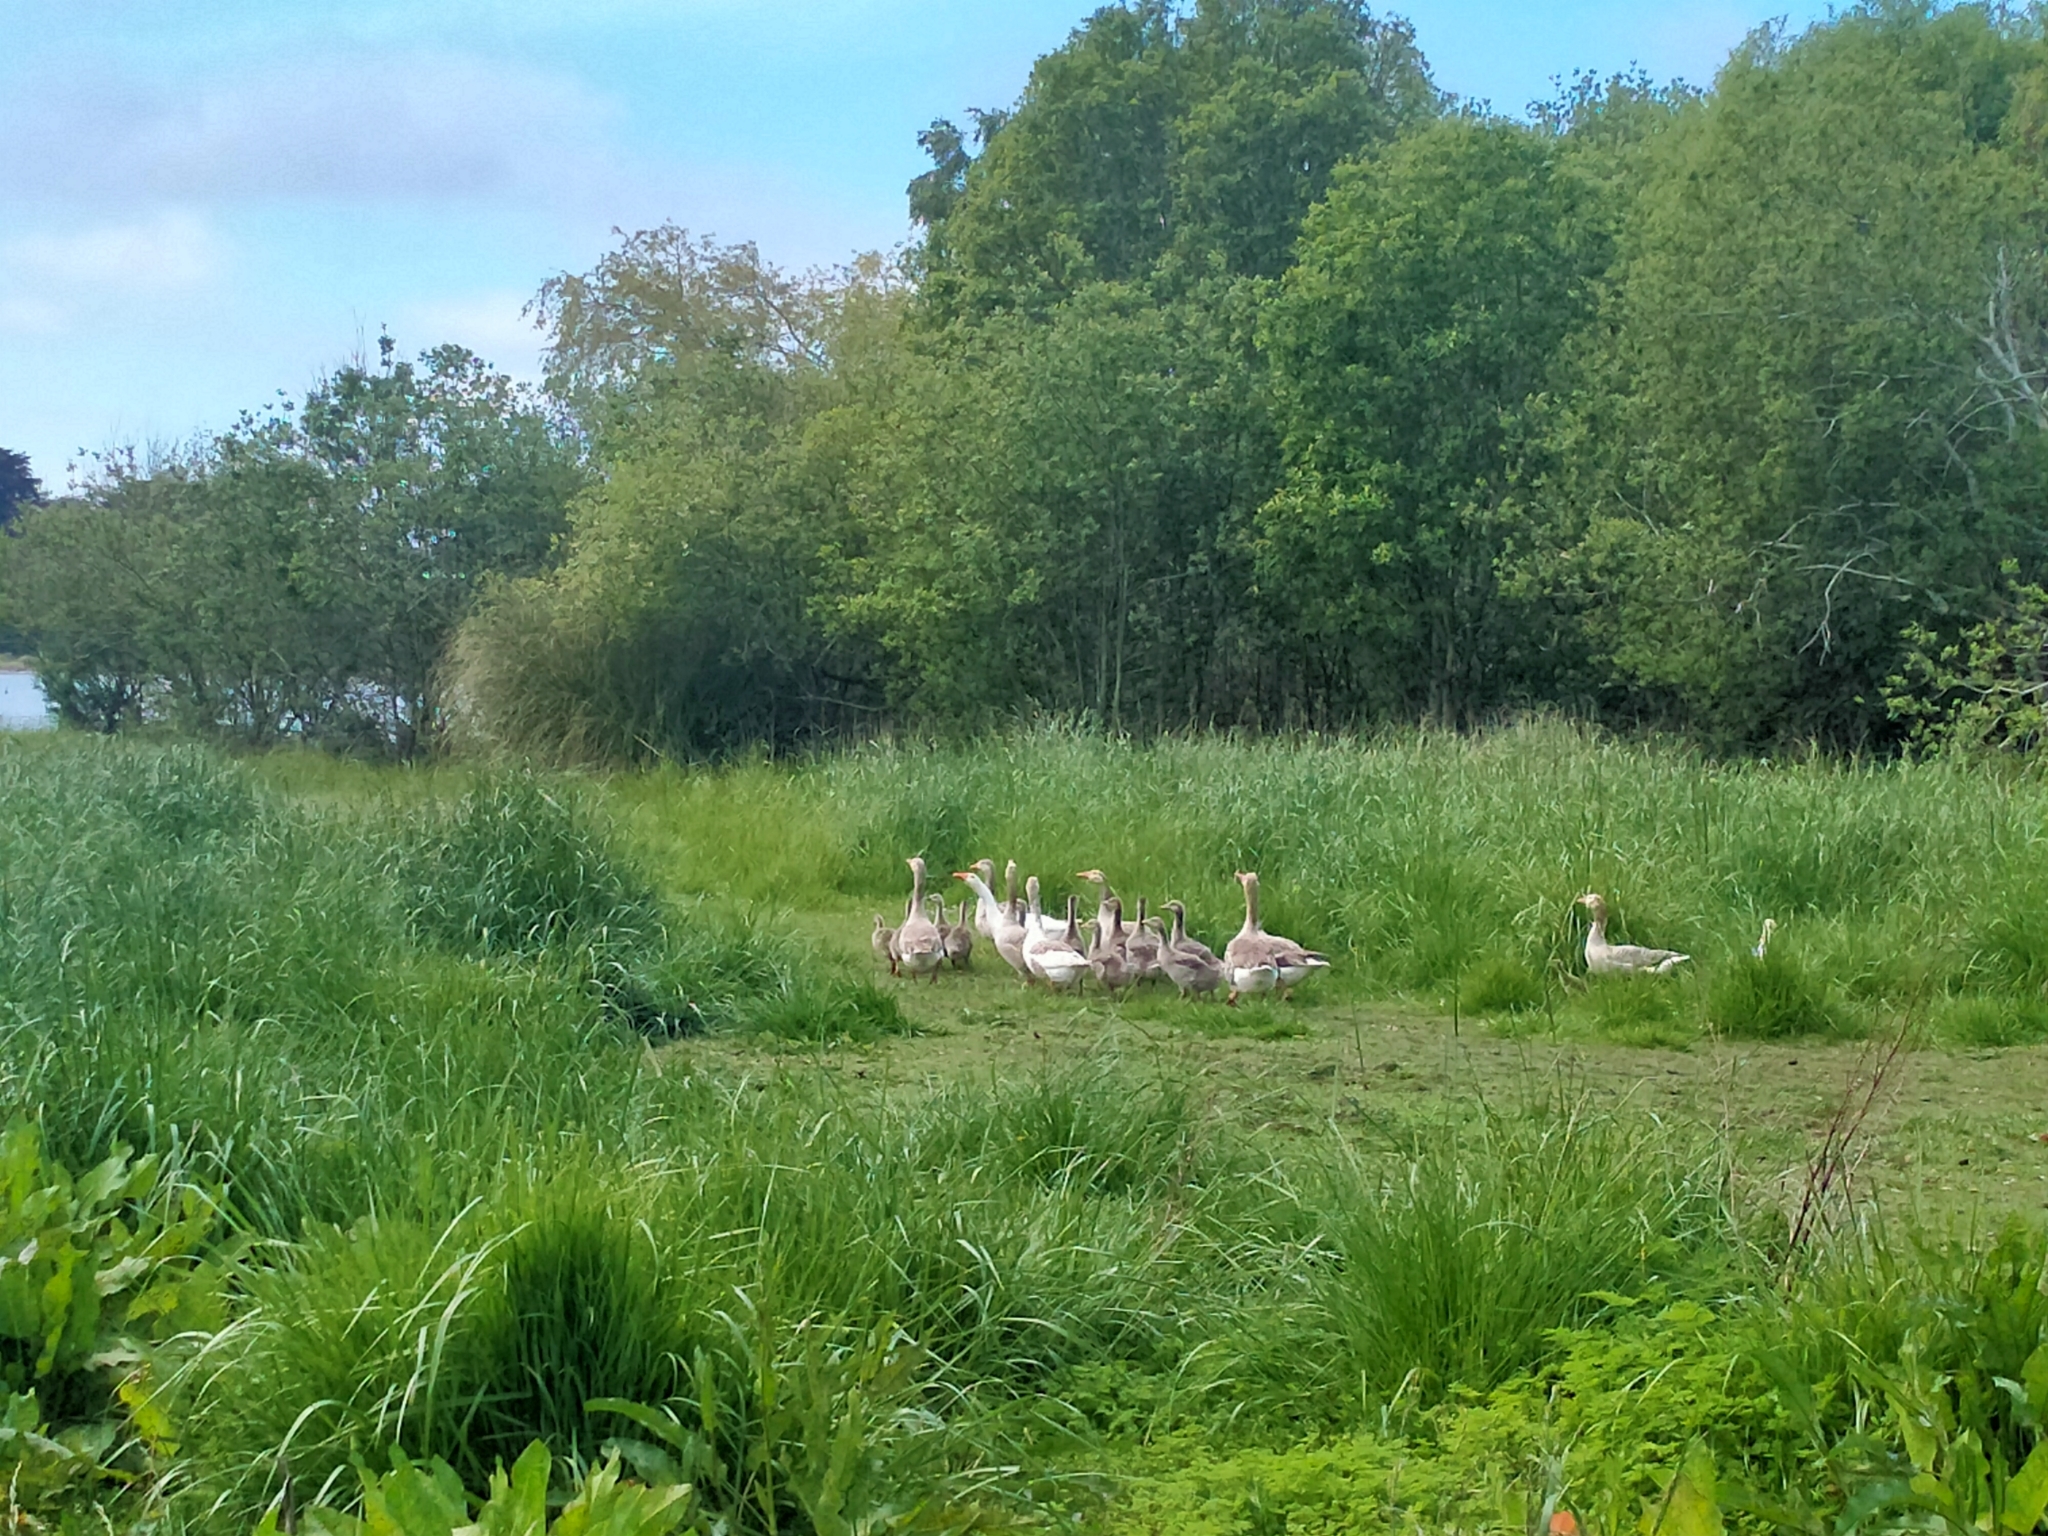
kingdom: Animalia
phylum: Chordata
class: Aves
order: Anseriformes
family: Anatidae
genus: Anser
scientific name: Anser anser
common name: Greylag goose
